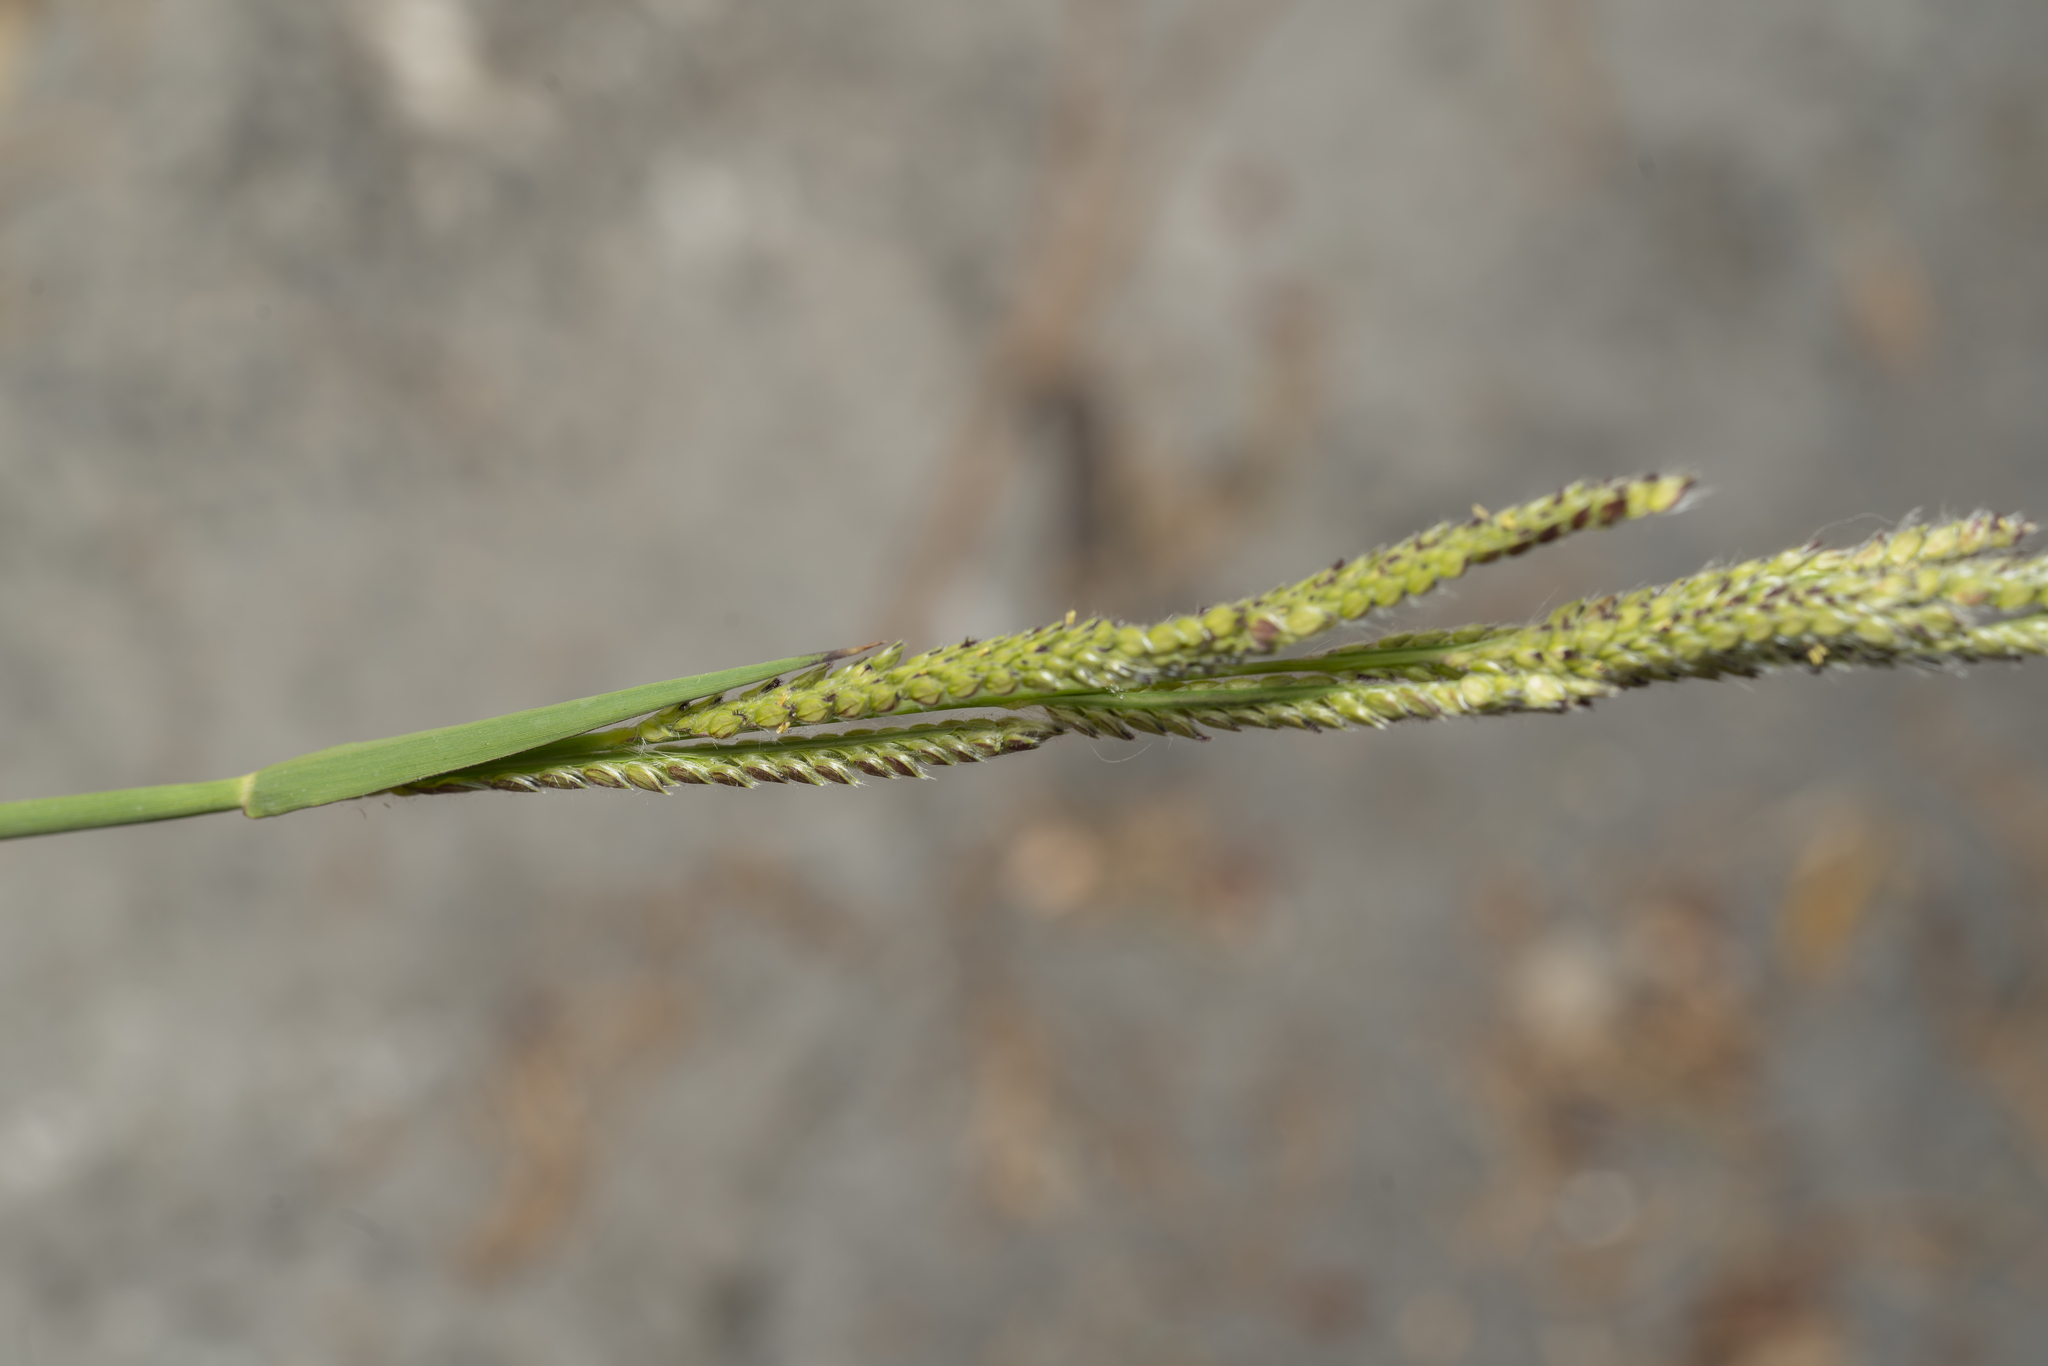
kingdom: Plantae
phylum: Tracheophyta
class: Liliopsida
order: Poales
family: Poaceae
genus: Paspalum
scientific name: Paspalum dilatatum
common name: Dallisgrass
